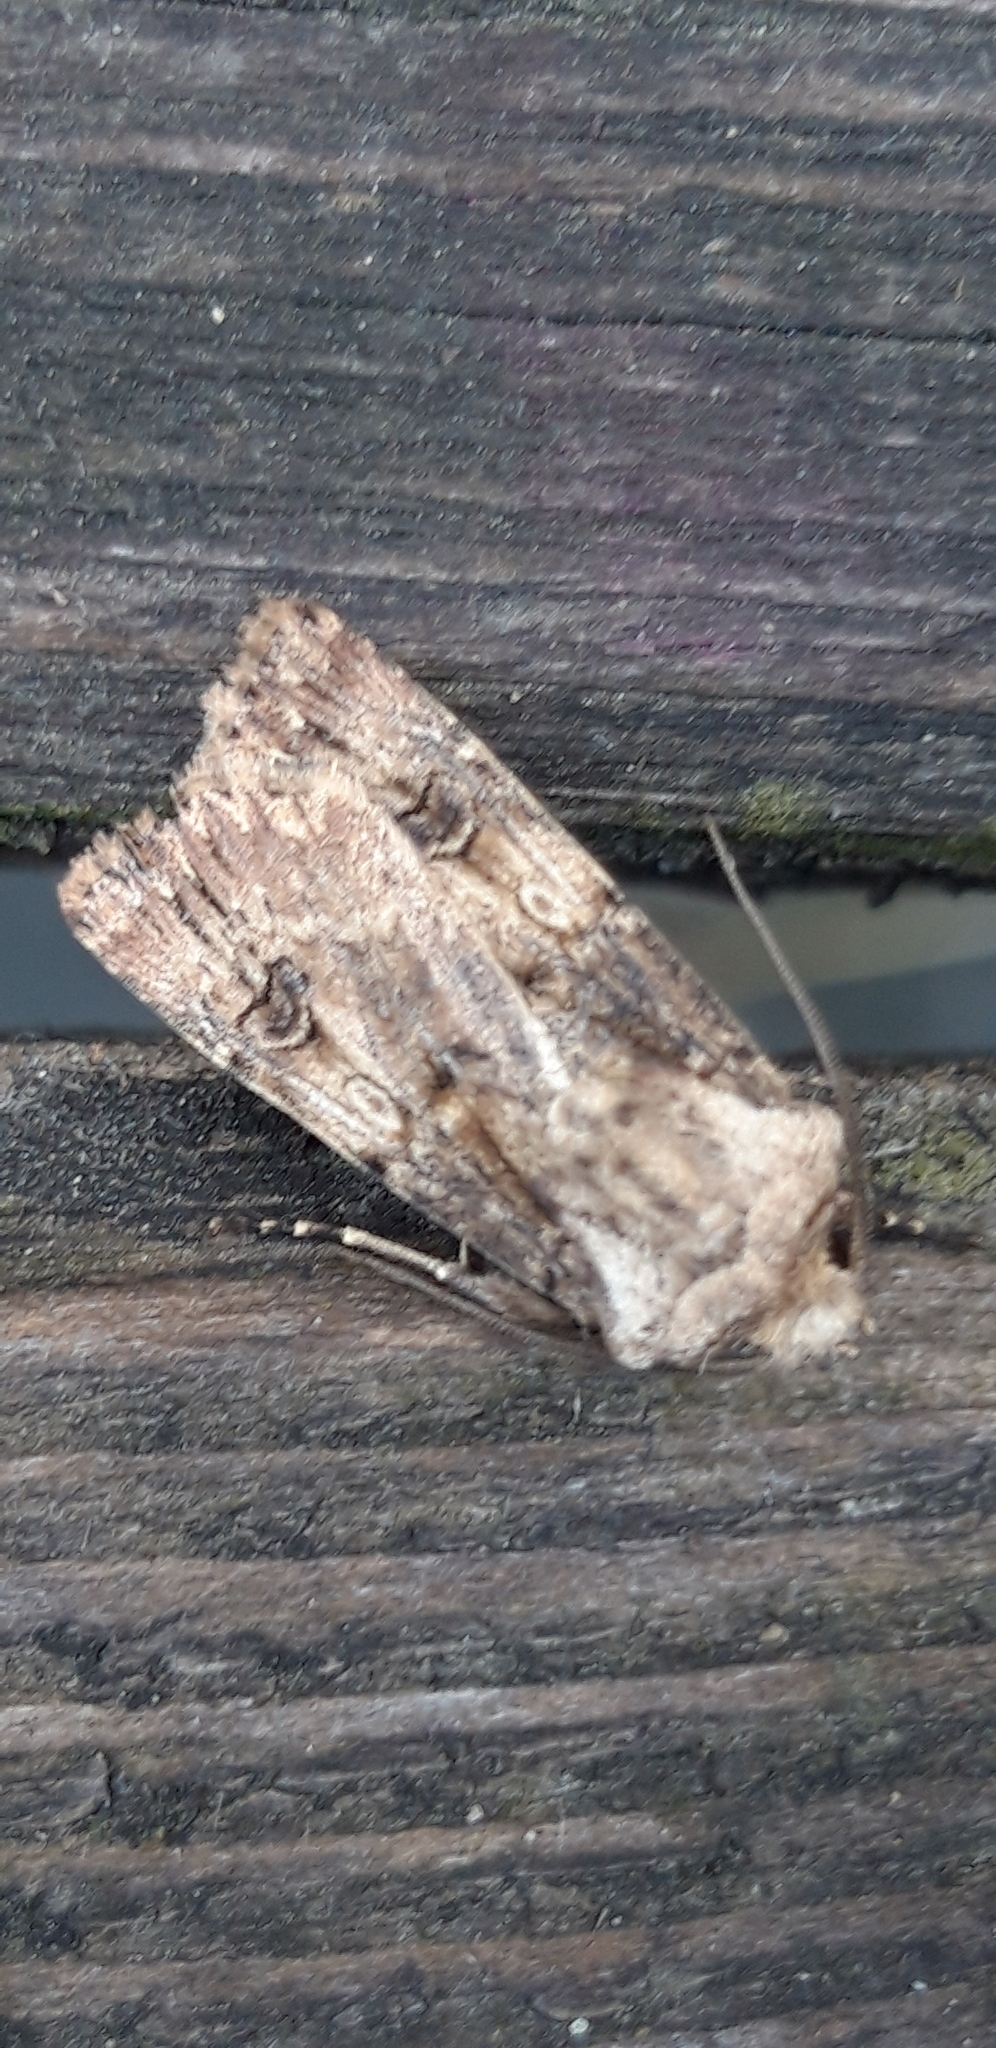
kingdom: Animalia
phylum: Arthropoda
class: Insecta
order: Lepidoptera
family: Noctuidae
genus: Agrotis
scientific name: Agrotis puta
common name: Shuttle-shaped dart
